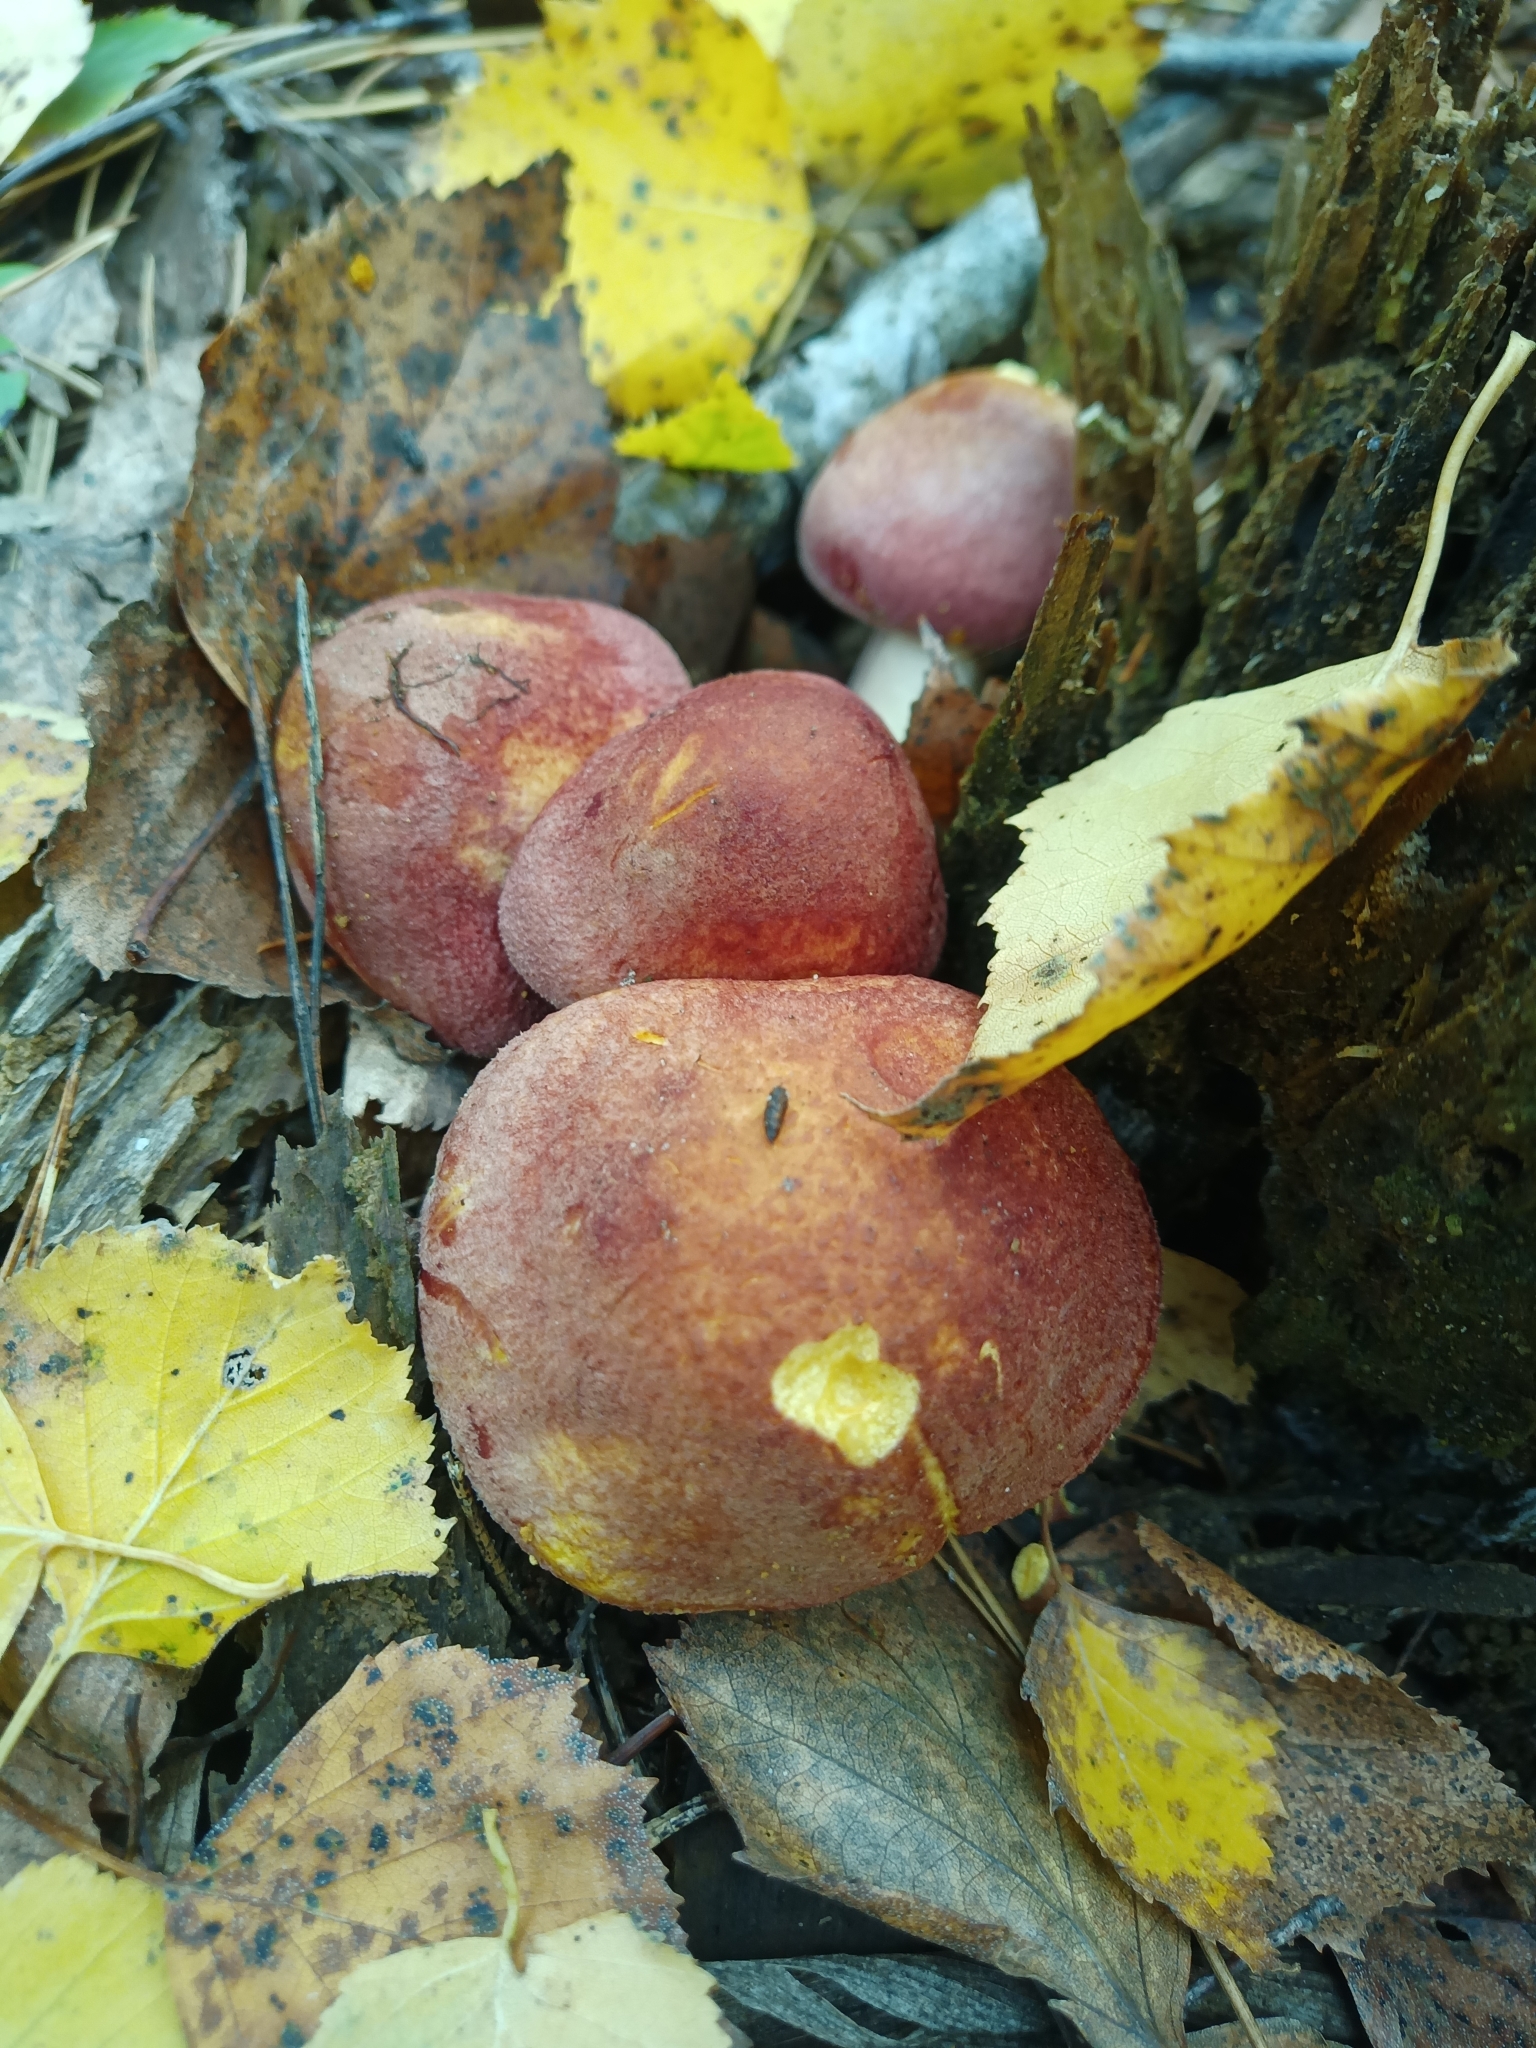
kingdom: Fungi
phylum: Basidiomycota
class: Agaricomycetes
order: Agaricales
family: Tricholomataceae
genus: Tricholomopsis
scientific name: Tricholomopsis rutilans
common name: Plums and custard
